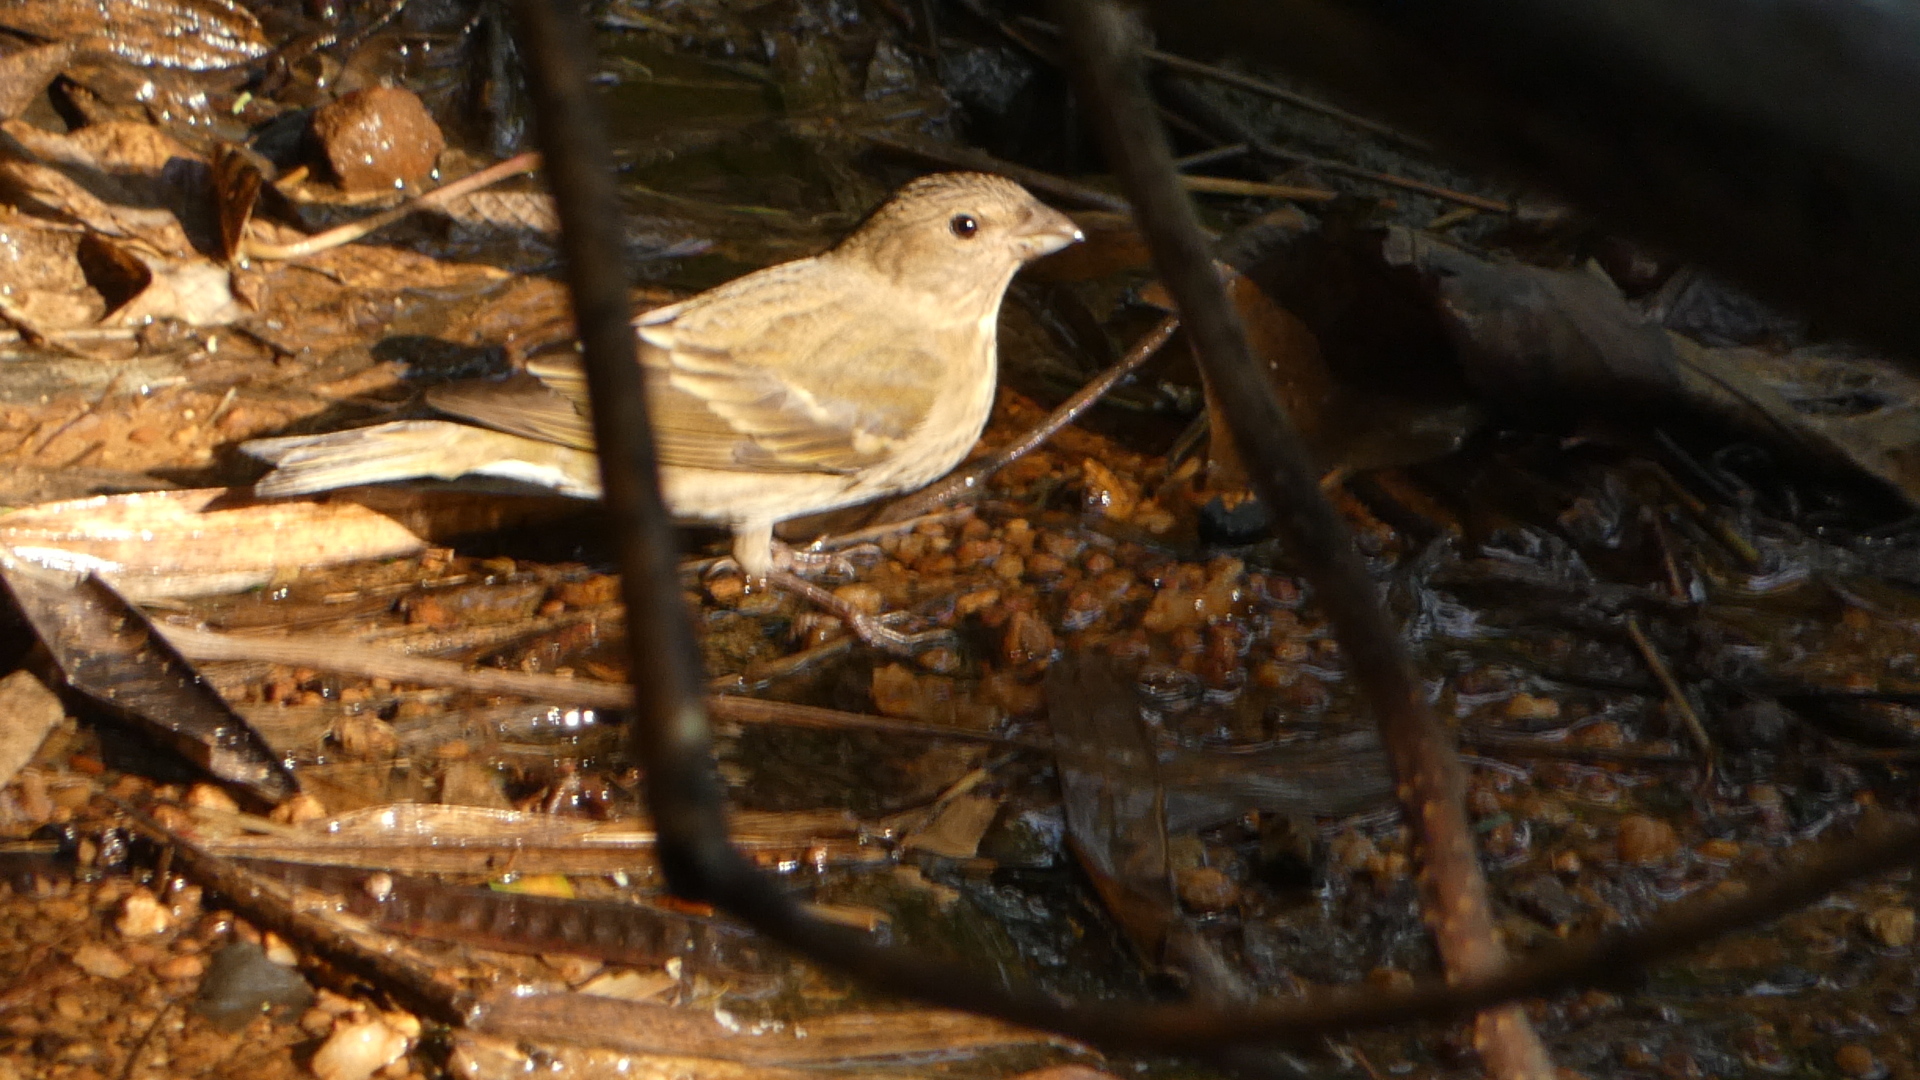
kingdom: Animalia
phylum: Chordata
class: Aves
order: Passeriformes
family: Fringillidae
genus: Carpodacus
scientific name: Carpodacus erythrinus
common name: Common rosefinch
